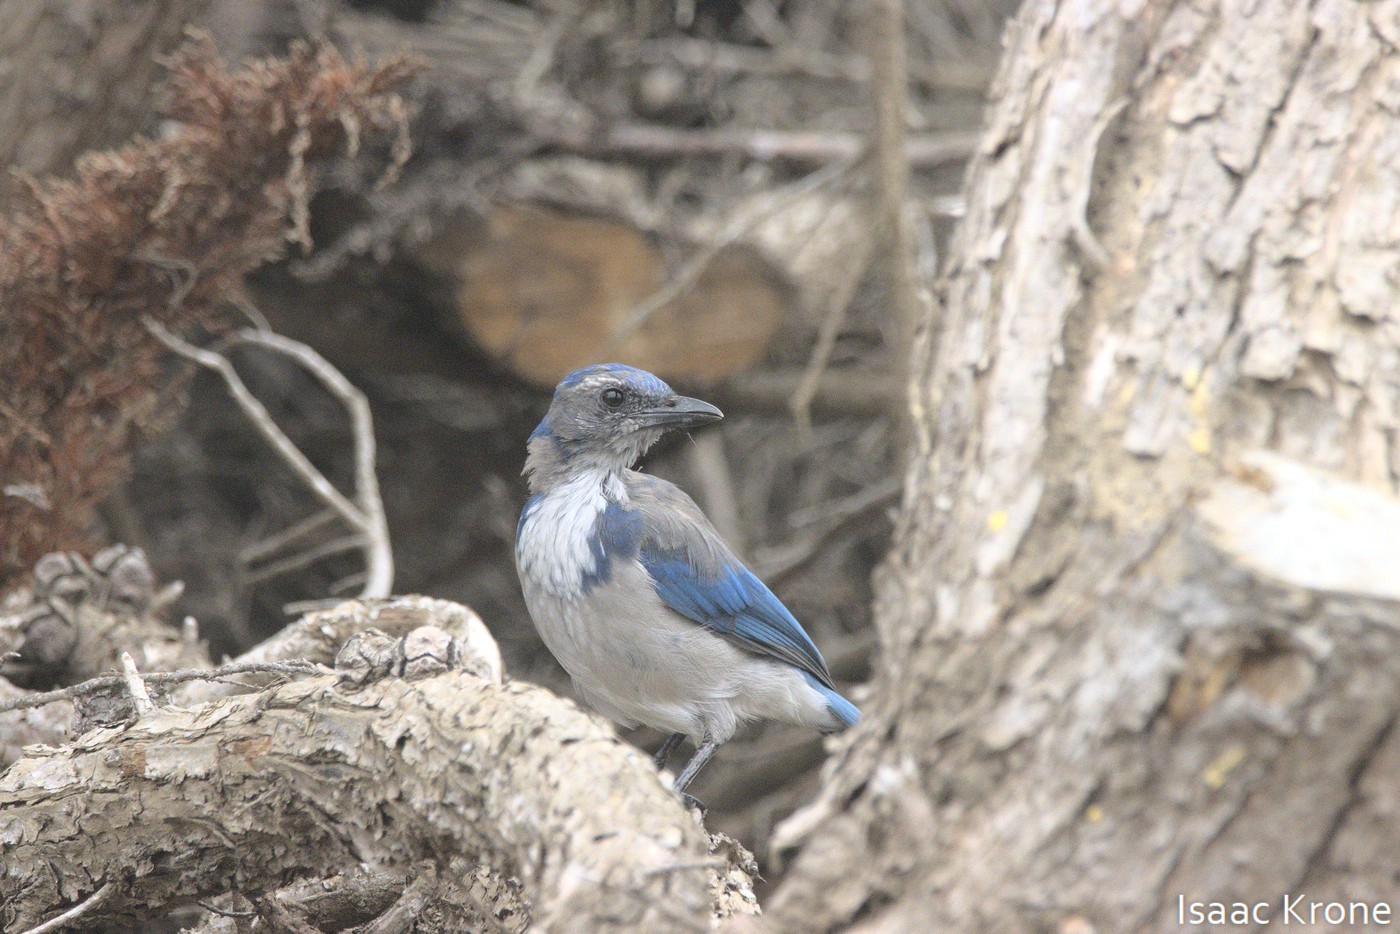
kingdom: Animalia
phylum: Chordata
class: Aves
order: Passeriformes
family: Corvidae
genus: Aphelocoma
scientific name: Aphelocoma californica
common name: California scrub-jay
